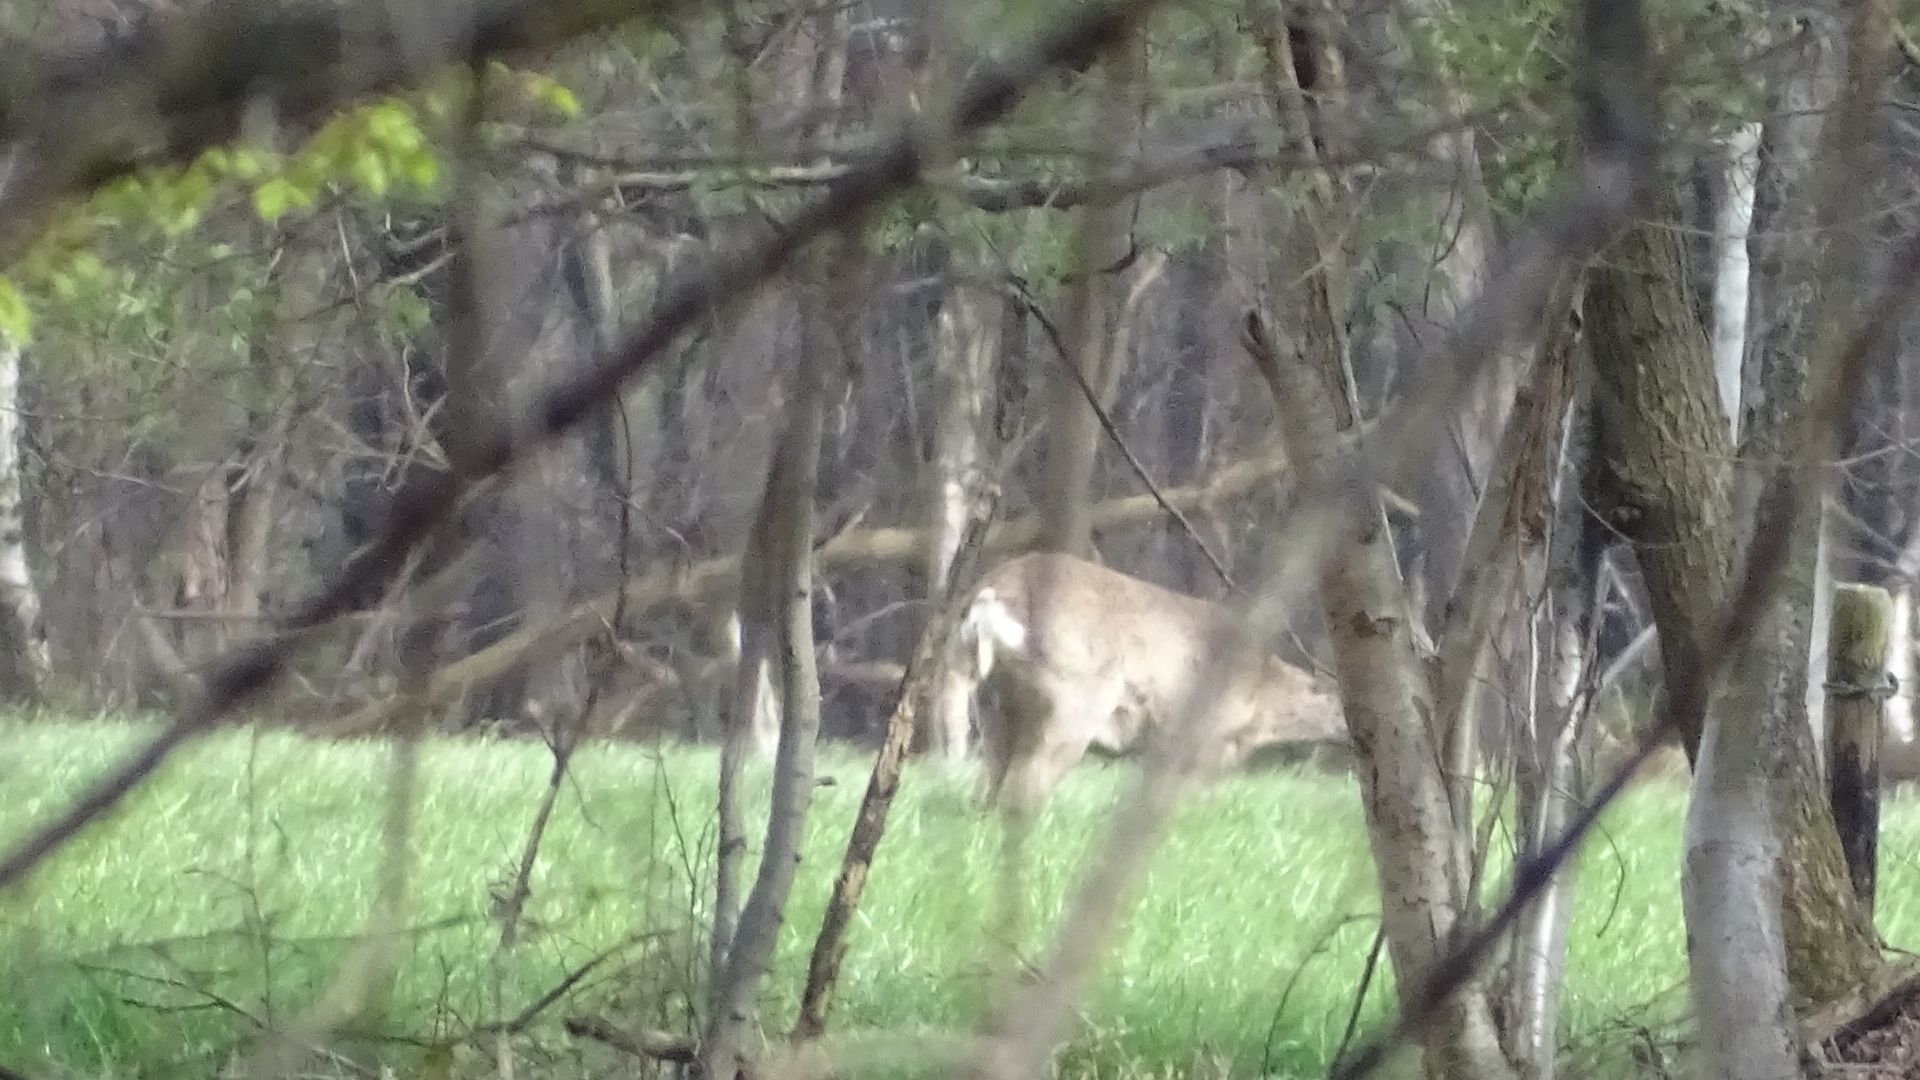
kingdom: Animalia
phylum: Chordata
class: Mammalia
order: Artiodactyla
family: Cervidae
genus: Capreolus
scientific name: Capreolus capreolus
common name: Western roe deer
